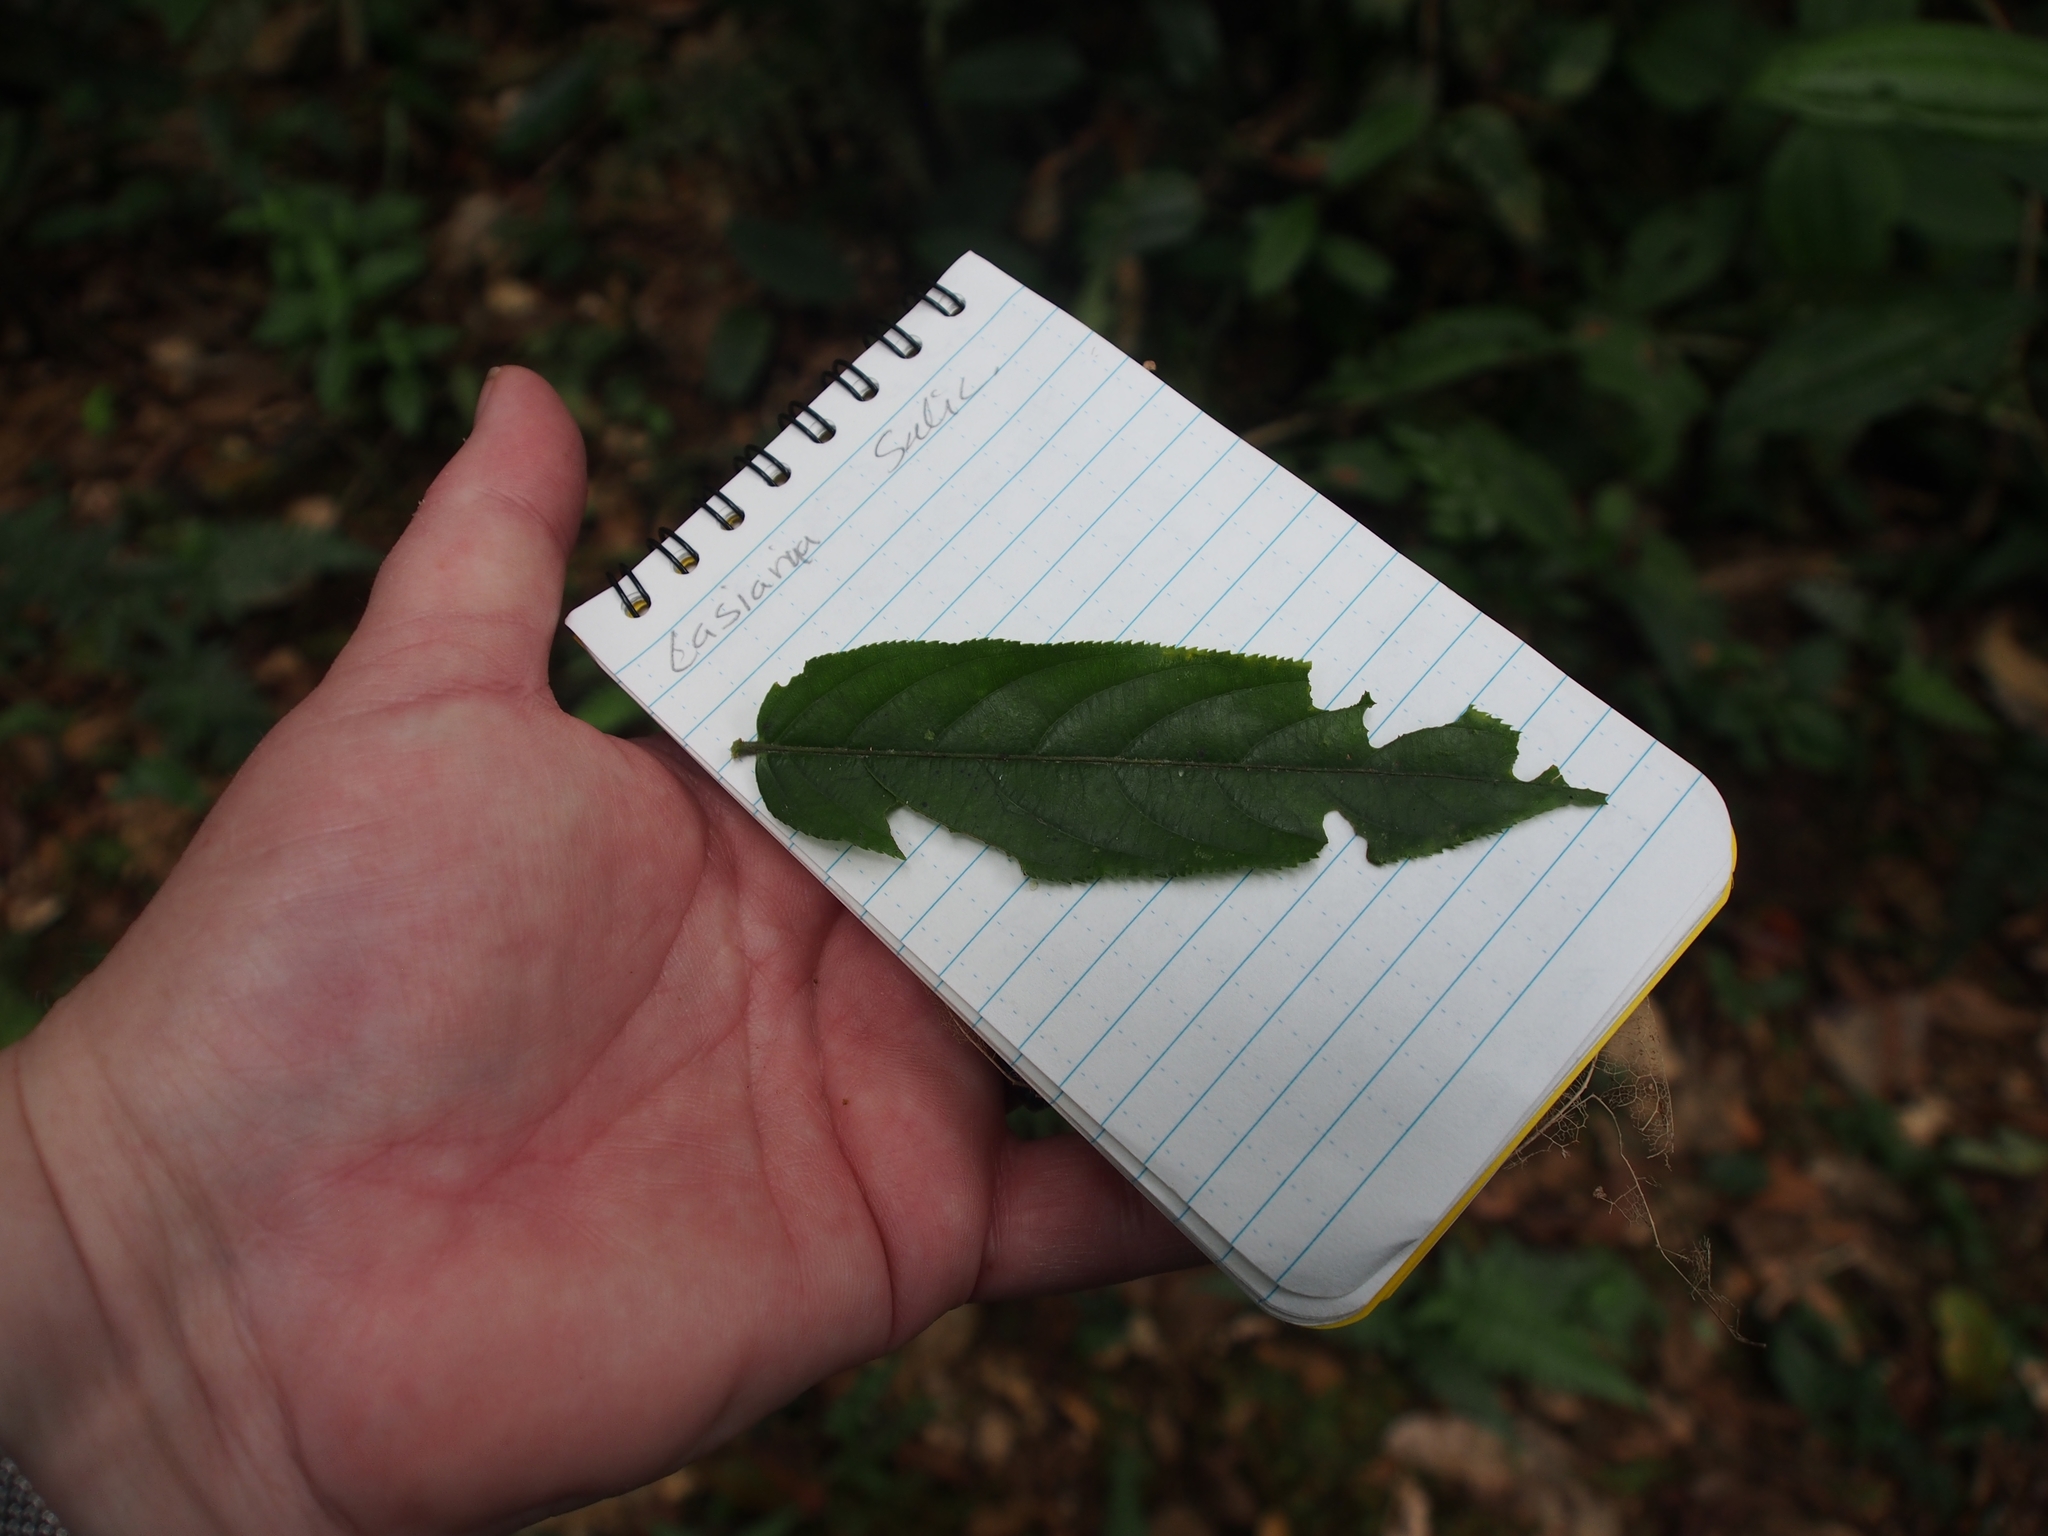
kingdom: Plantae
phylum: Tracheophyta
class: Magnoliopsida
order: Malpighiales
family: Salicaceae
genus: Casearia
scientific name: Casearia arborea
